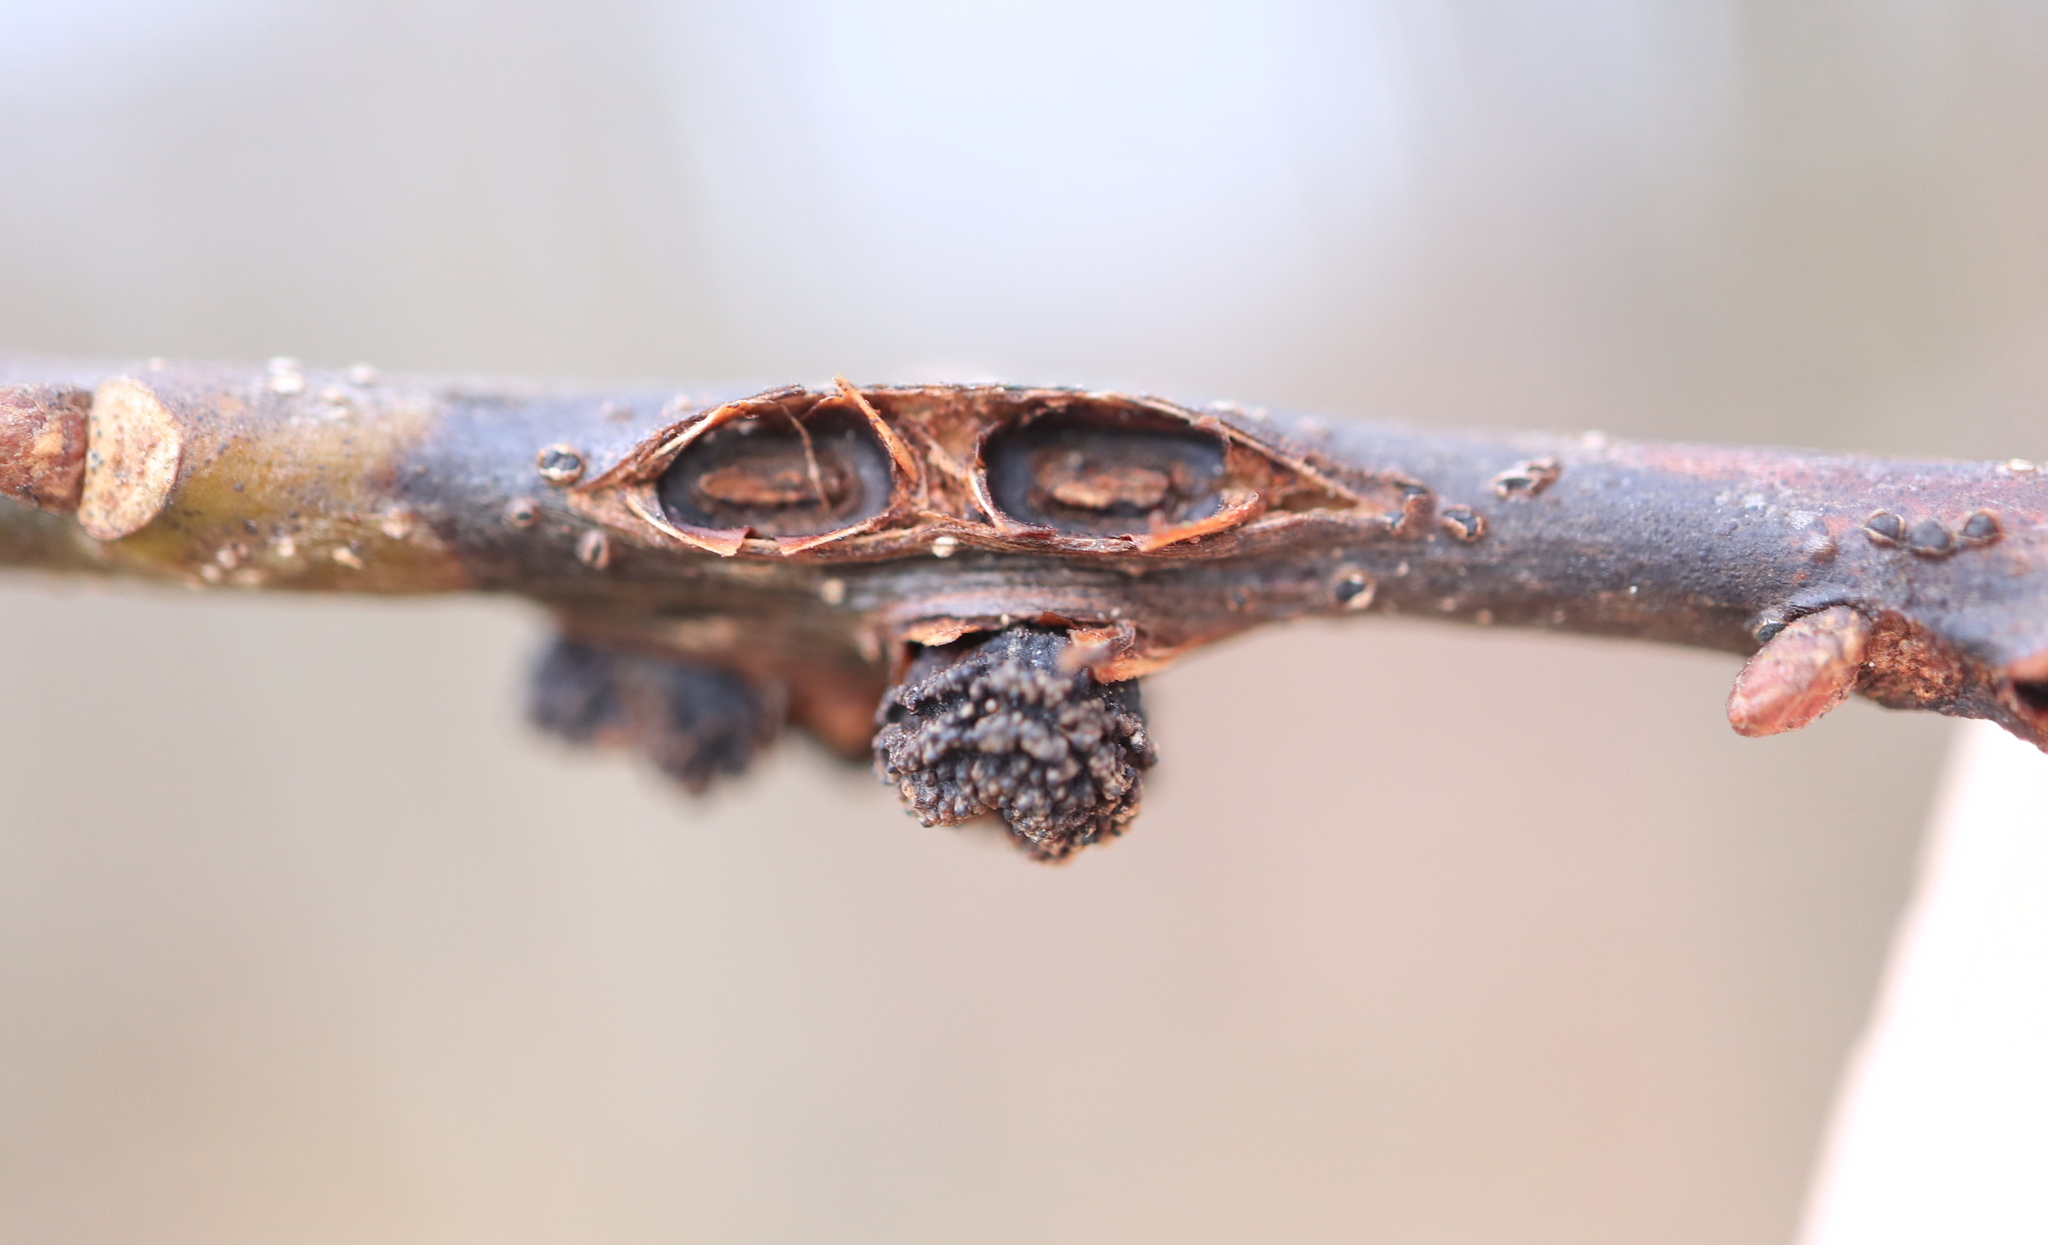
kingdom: Animalia
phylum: Arthropoda
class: Insecta
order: Hymenoptera
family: Cynipidae
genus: Kokkocynips
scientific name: Kokkocynips difficilis
